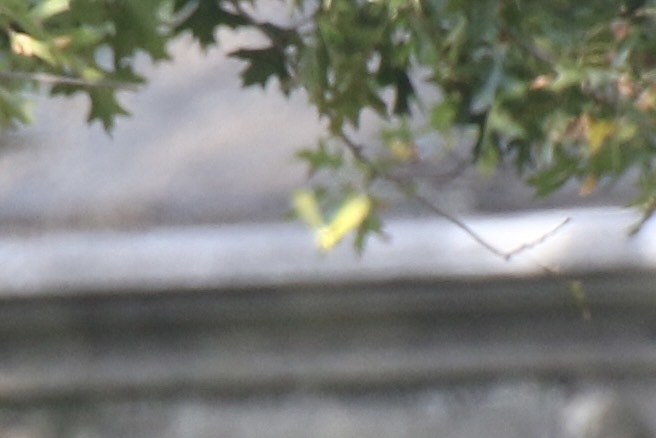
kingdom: Animalia
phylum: Arthropoda
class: Insecta
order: Lepidoptera
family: Pieridae
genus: Phoebis
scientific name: Phoebis sennae
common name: Cloudless sulphur
